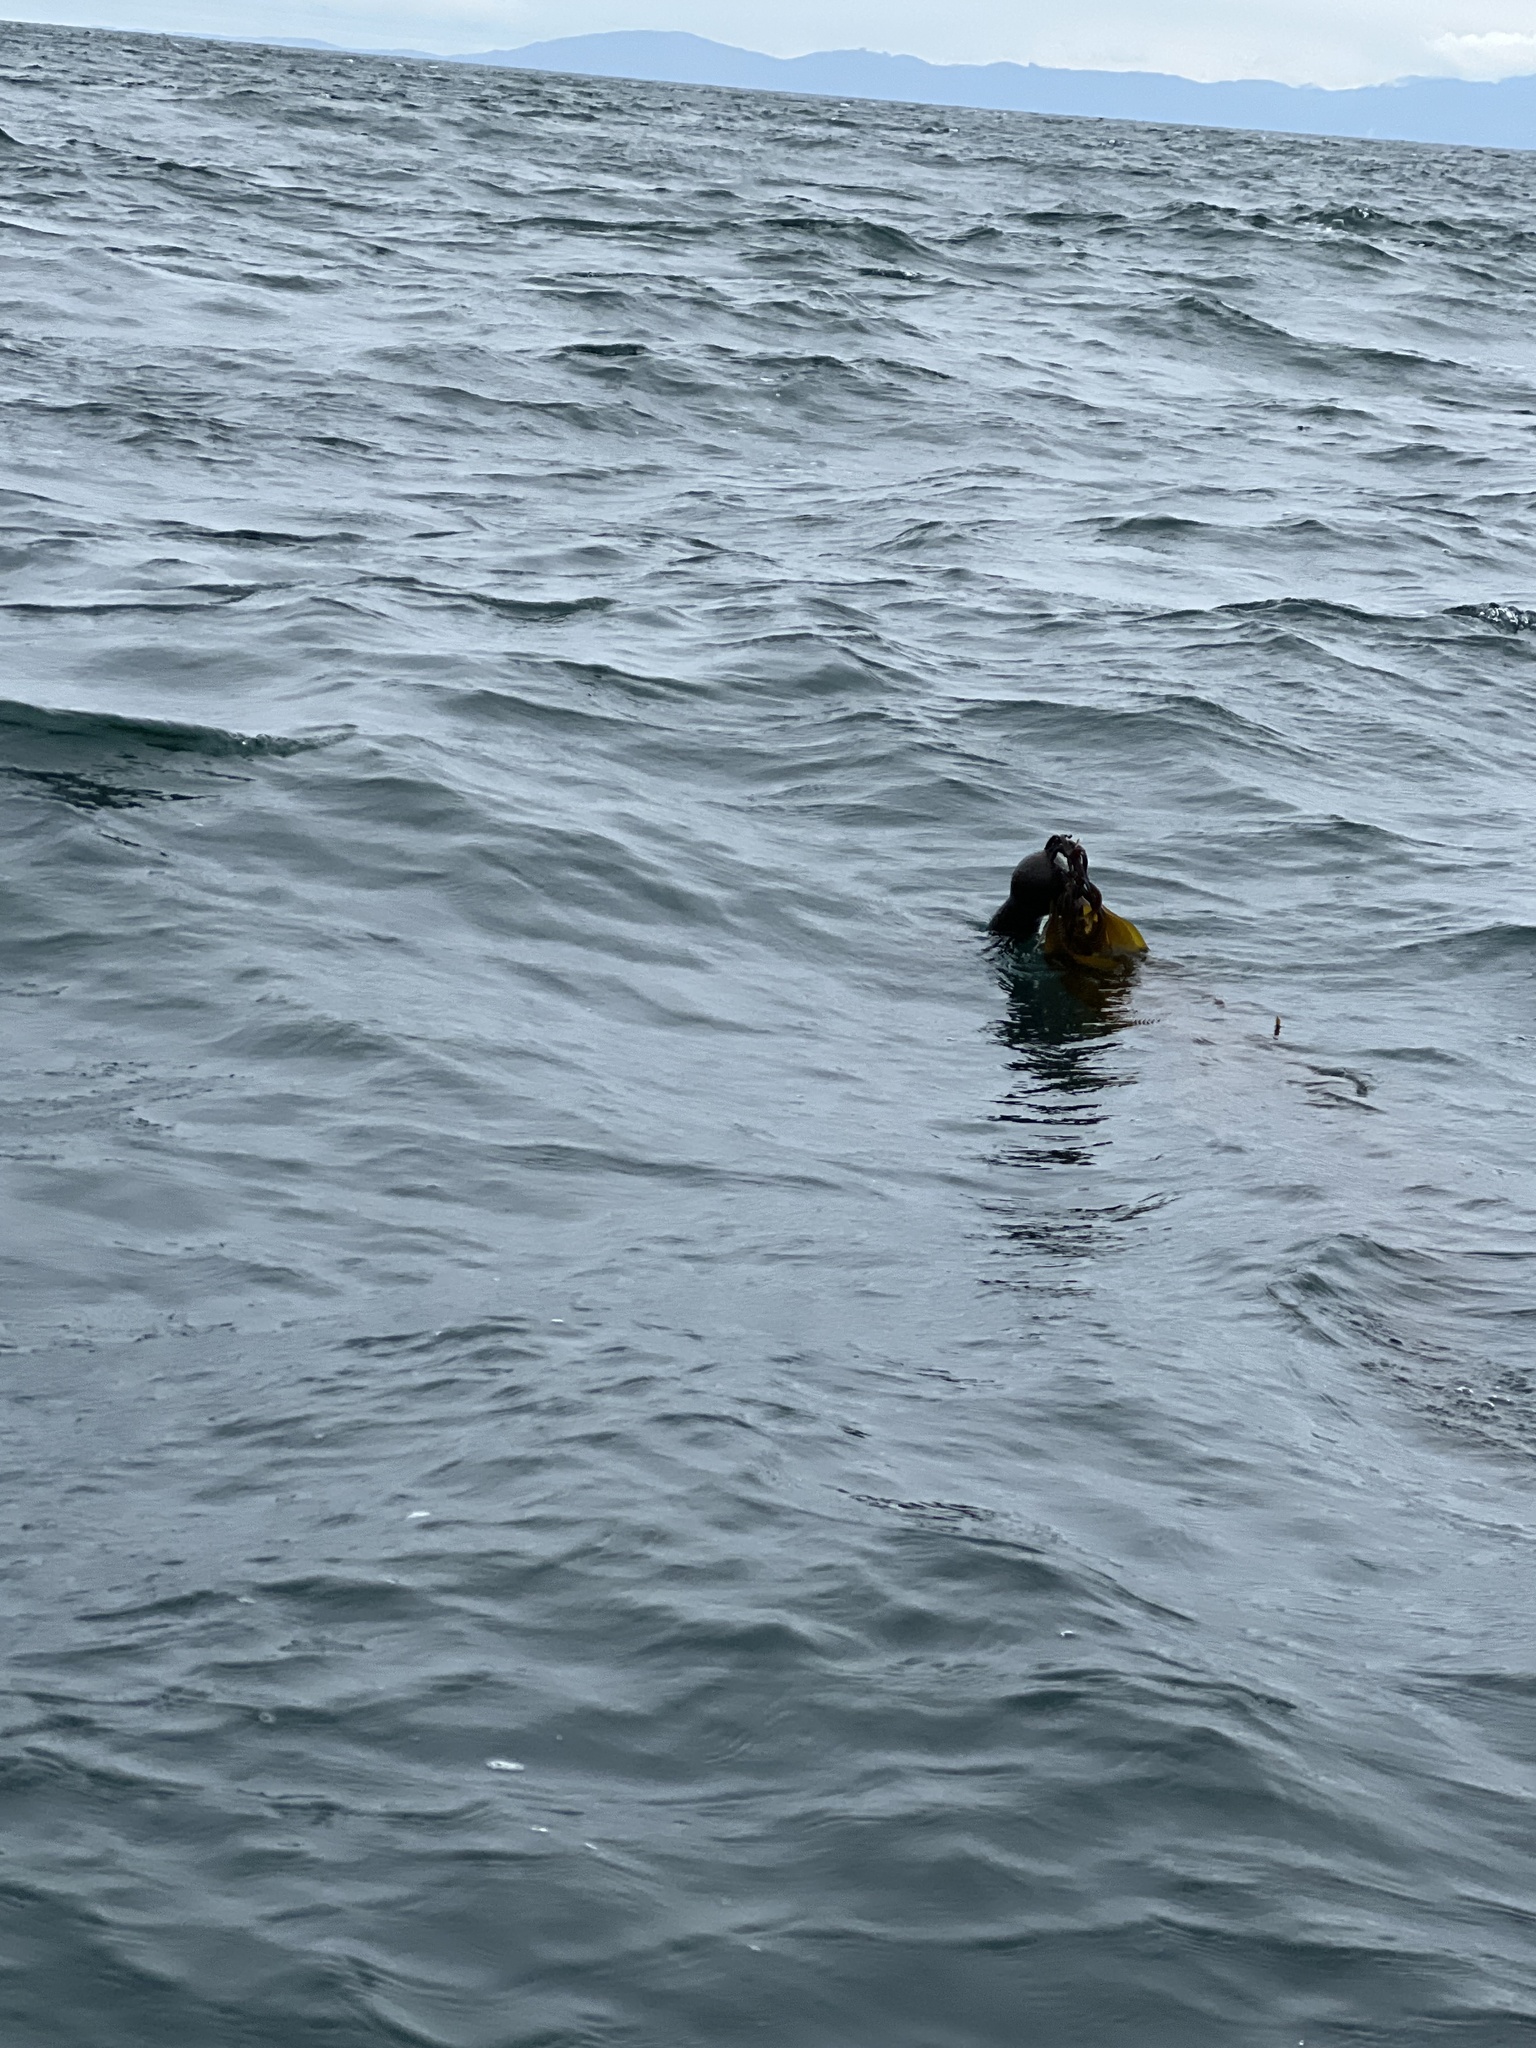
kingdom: Chromista
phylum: Ochrophyta
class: Phaeophyceae
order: Laminariales
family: Laminariaceae
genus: Nereocystis
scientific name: Nereocystis luetkeana
